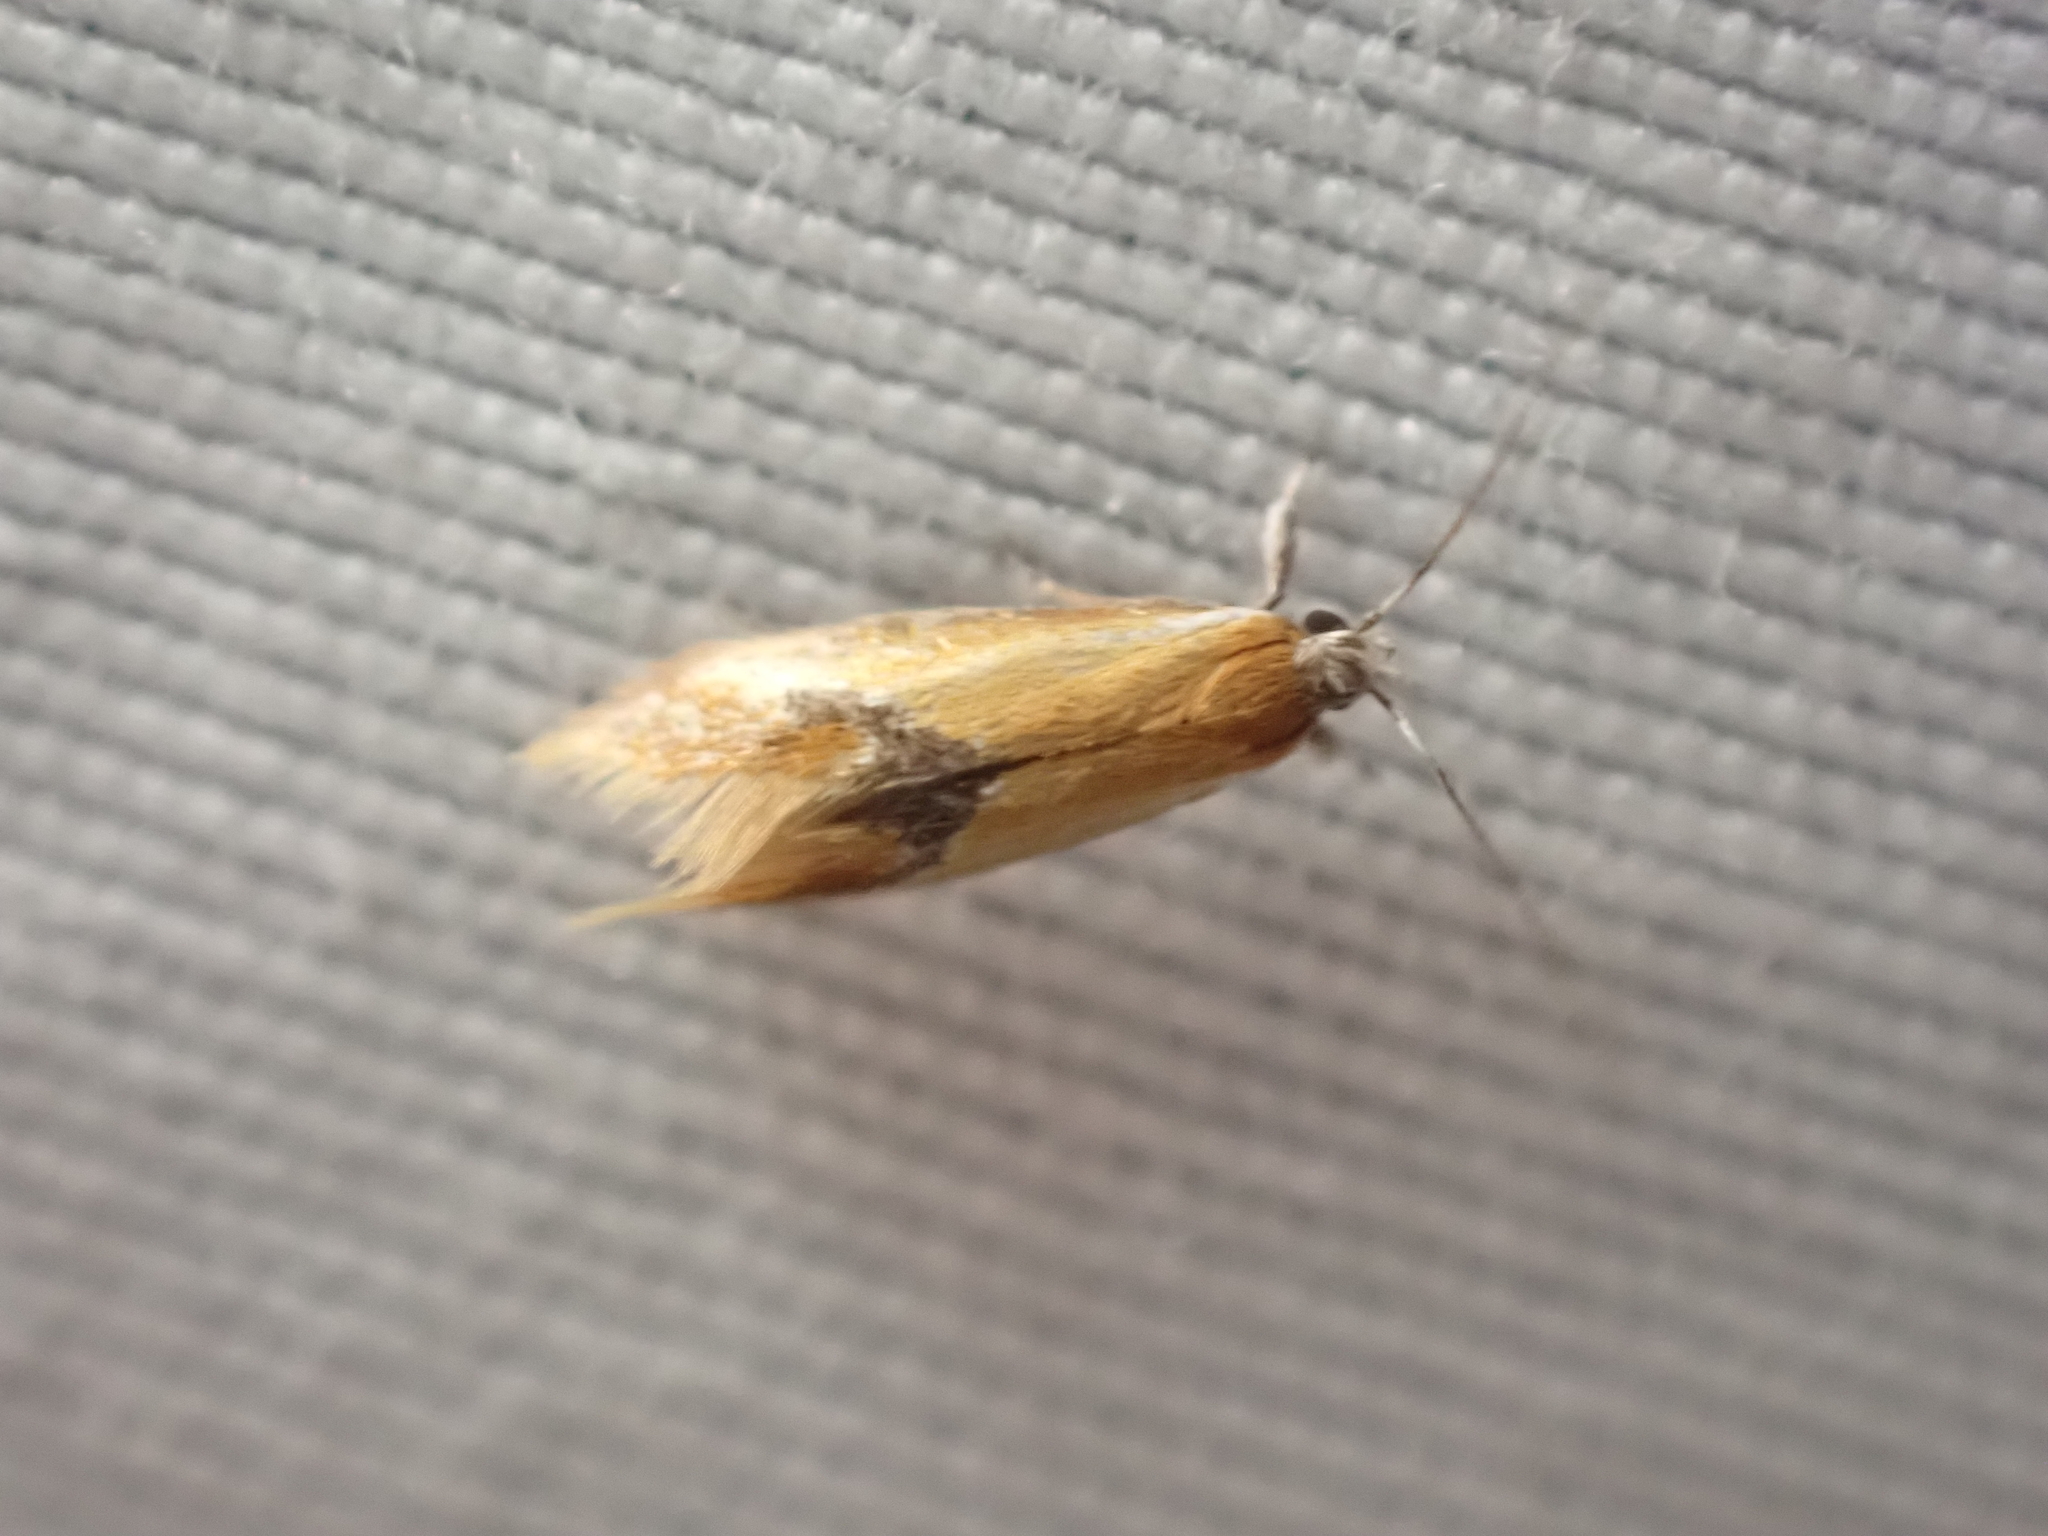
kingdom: Animalia
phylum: Arthropoda
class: Insecta
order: Lepidoptera
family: Oecophoridae
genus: Batia
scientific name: Batia lunaris
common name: Moth
